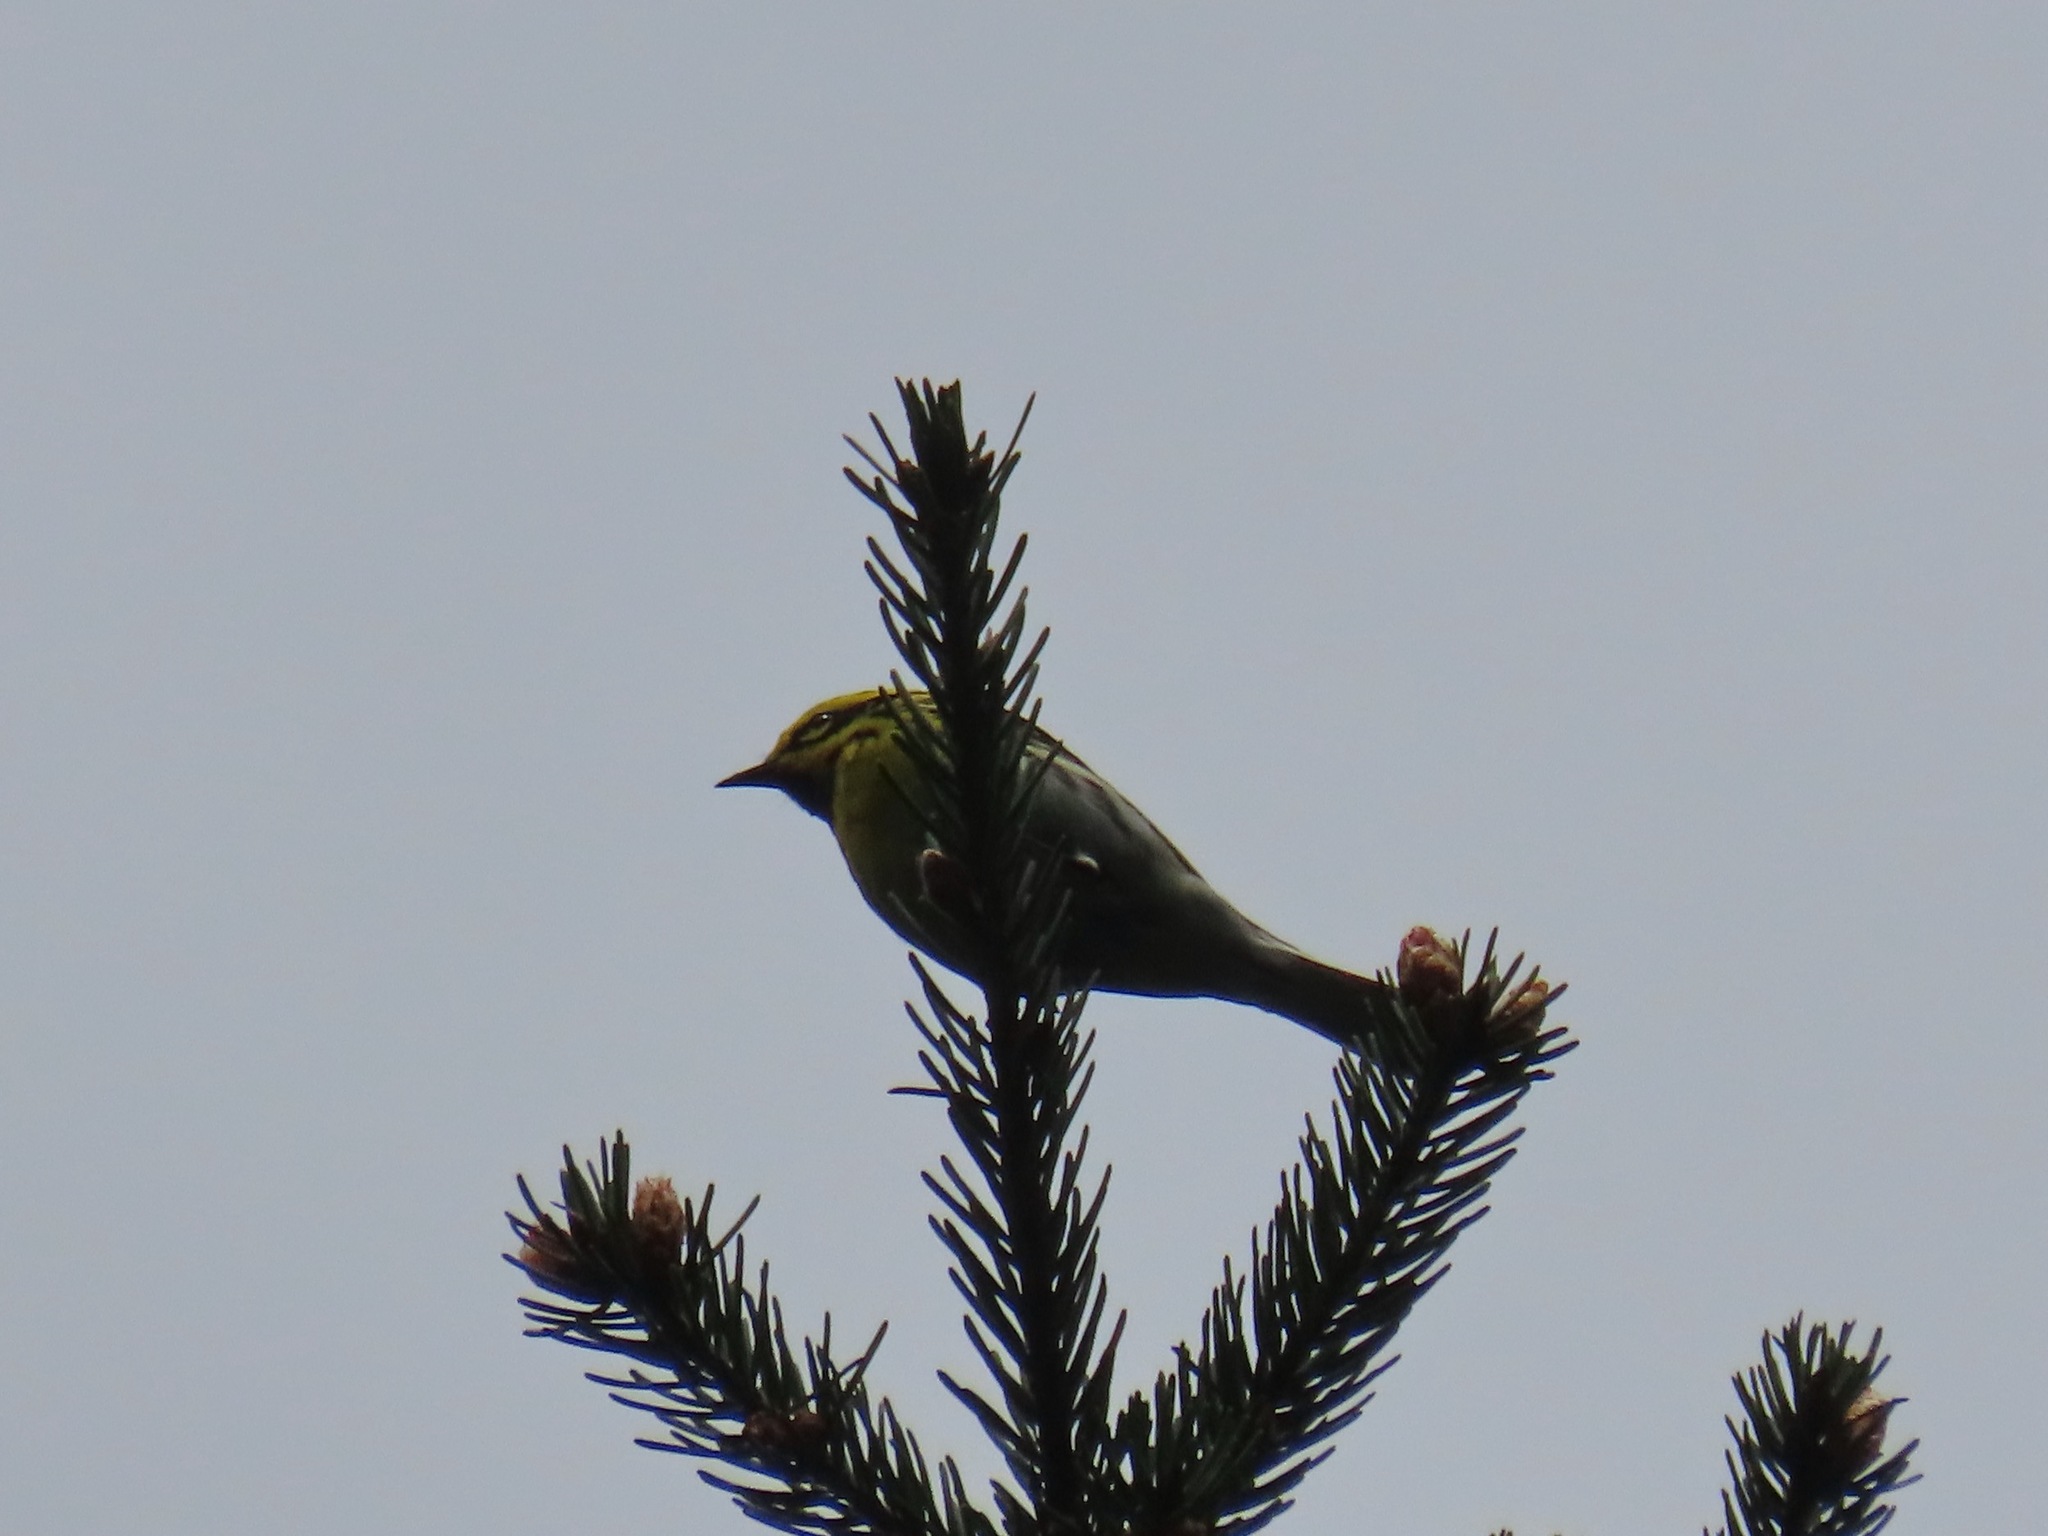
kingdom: Animalia
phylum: Chordata
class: Aves
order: Passeriformes
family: Parulidae
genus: Setophaga
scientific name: Setophaga townsendi
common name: Townsend's warbler
